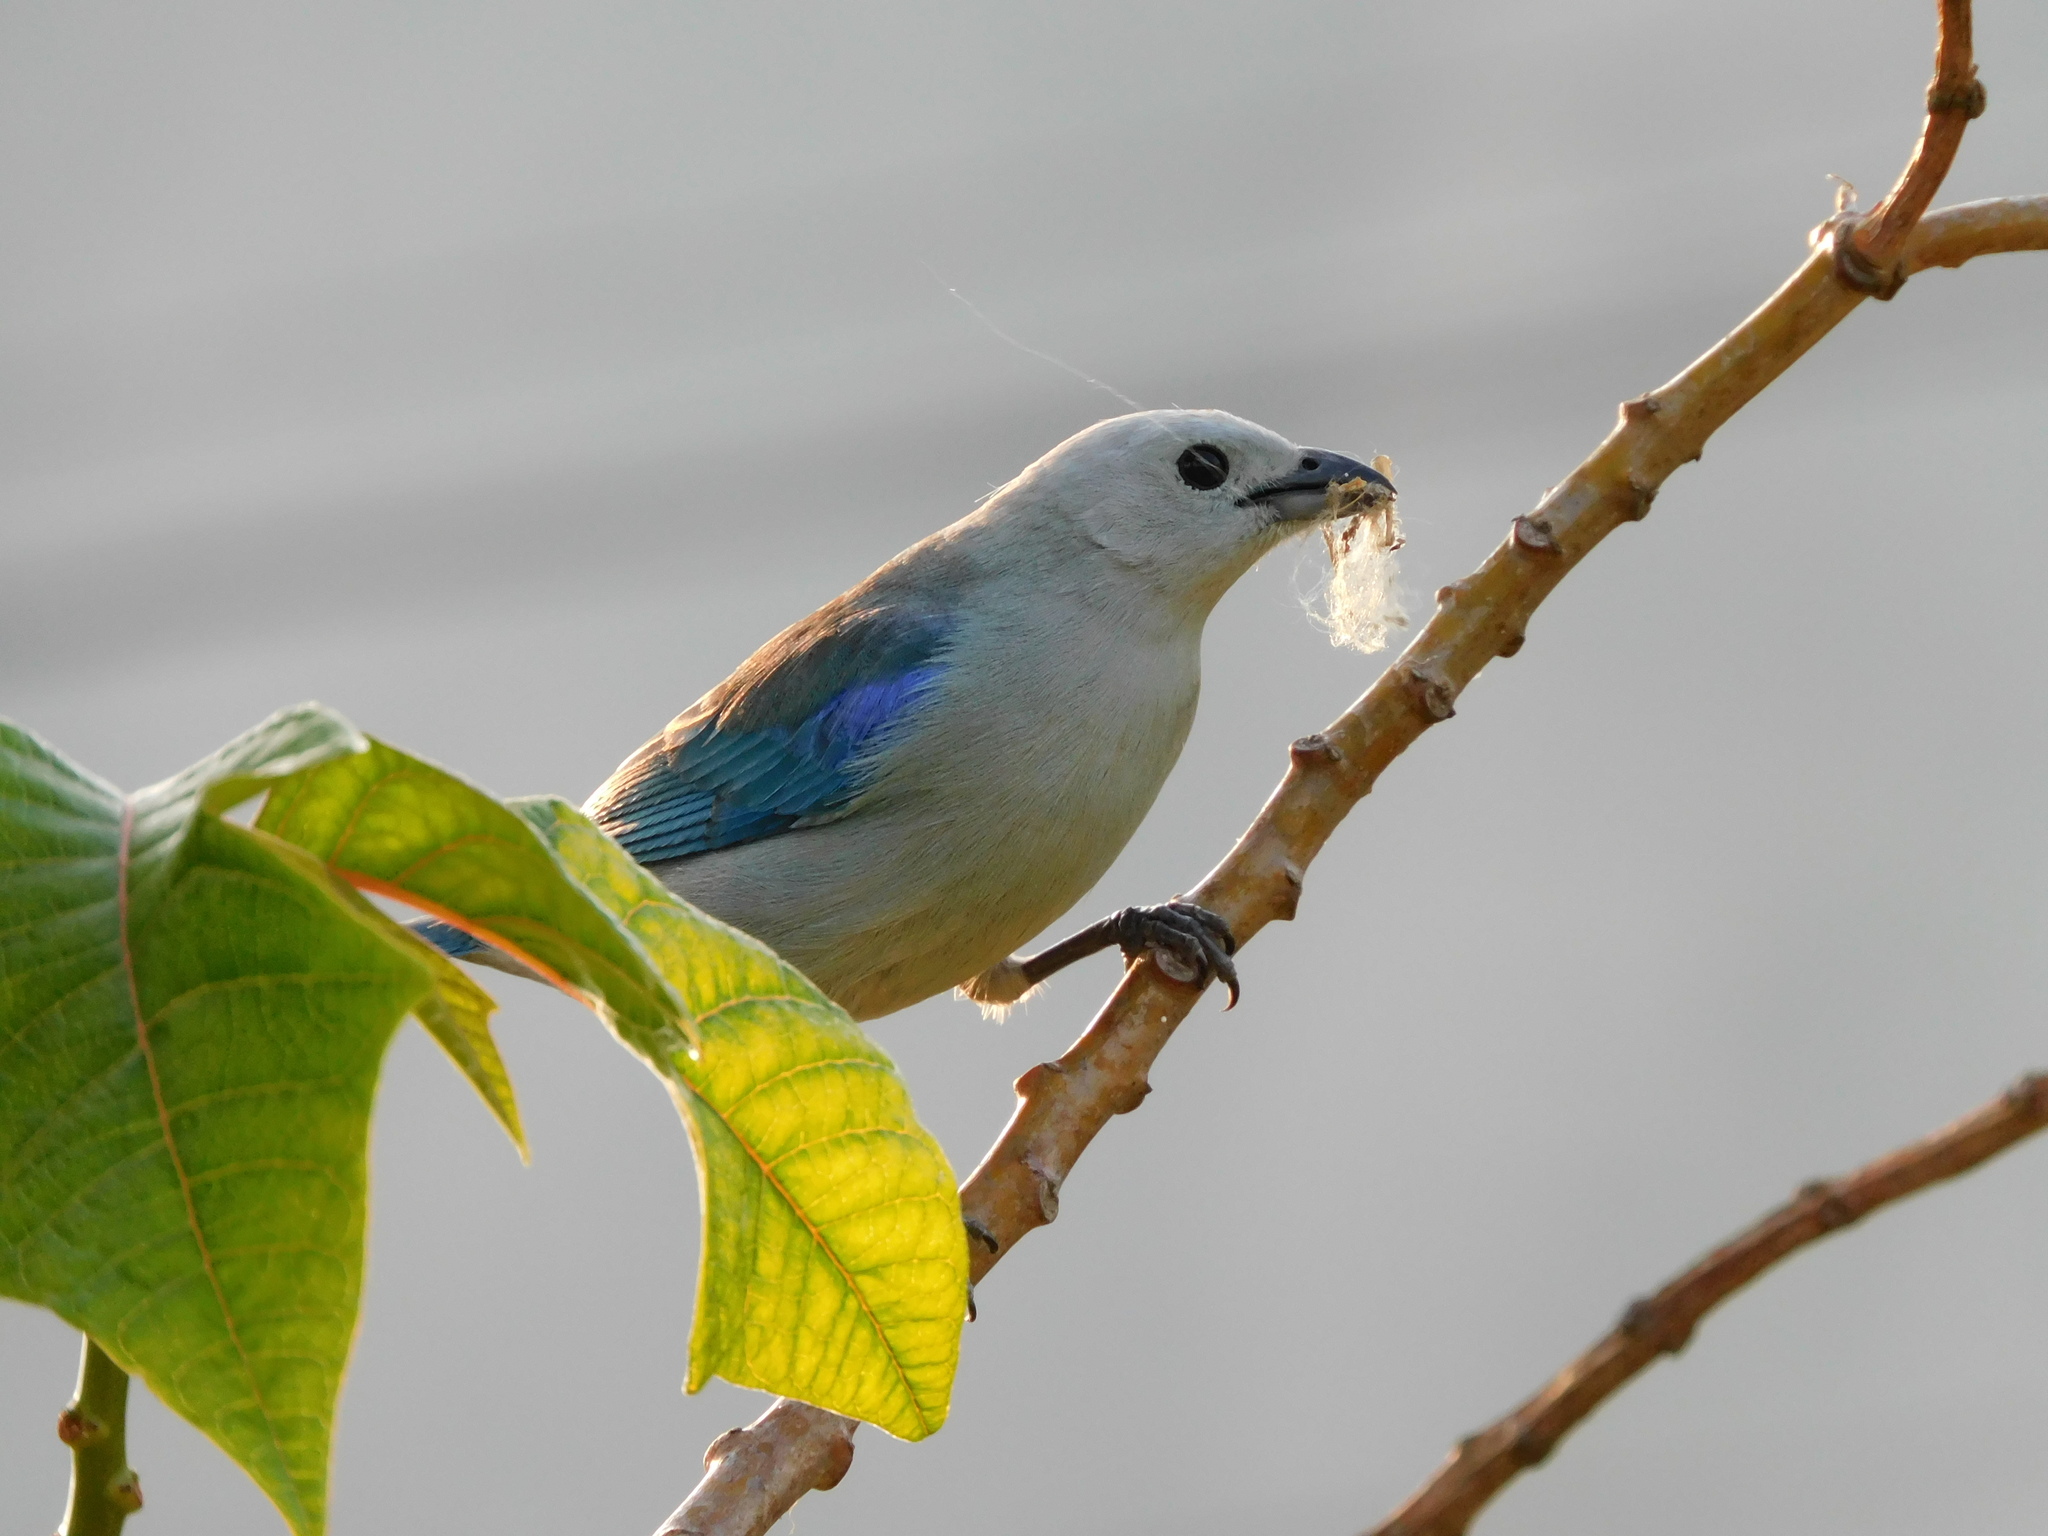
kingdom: Animalia
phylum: Chordata
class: Aves
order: Passeriformes
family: Thraupidae
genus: Thraupis
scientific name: Thraupis episcopus
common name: Blue-grey tanager
